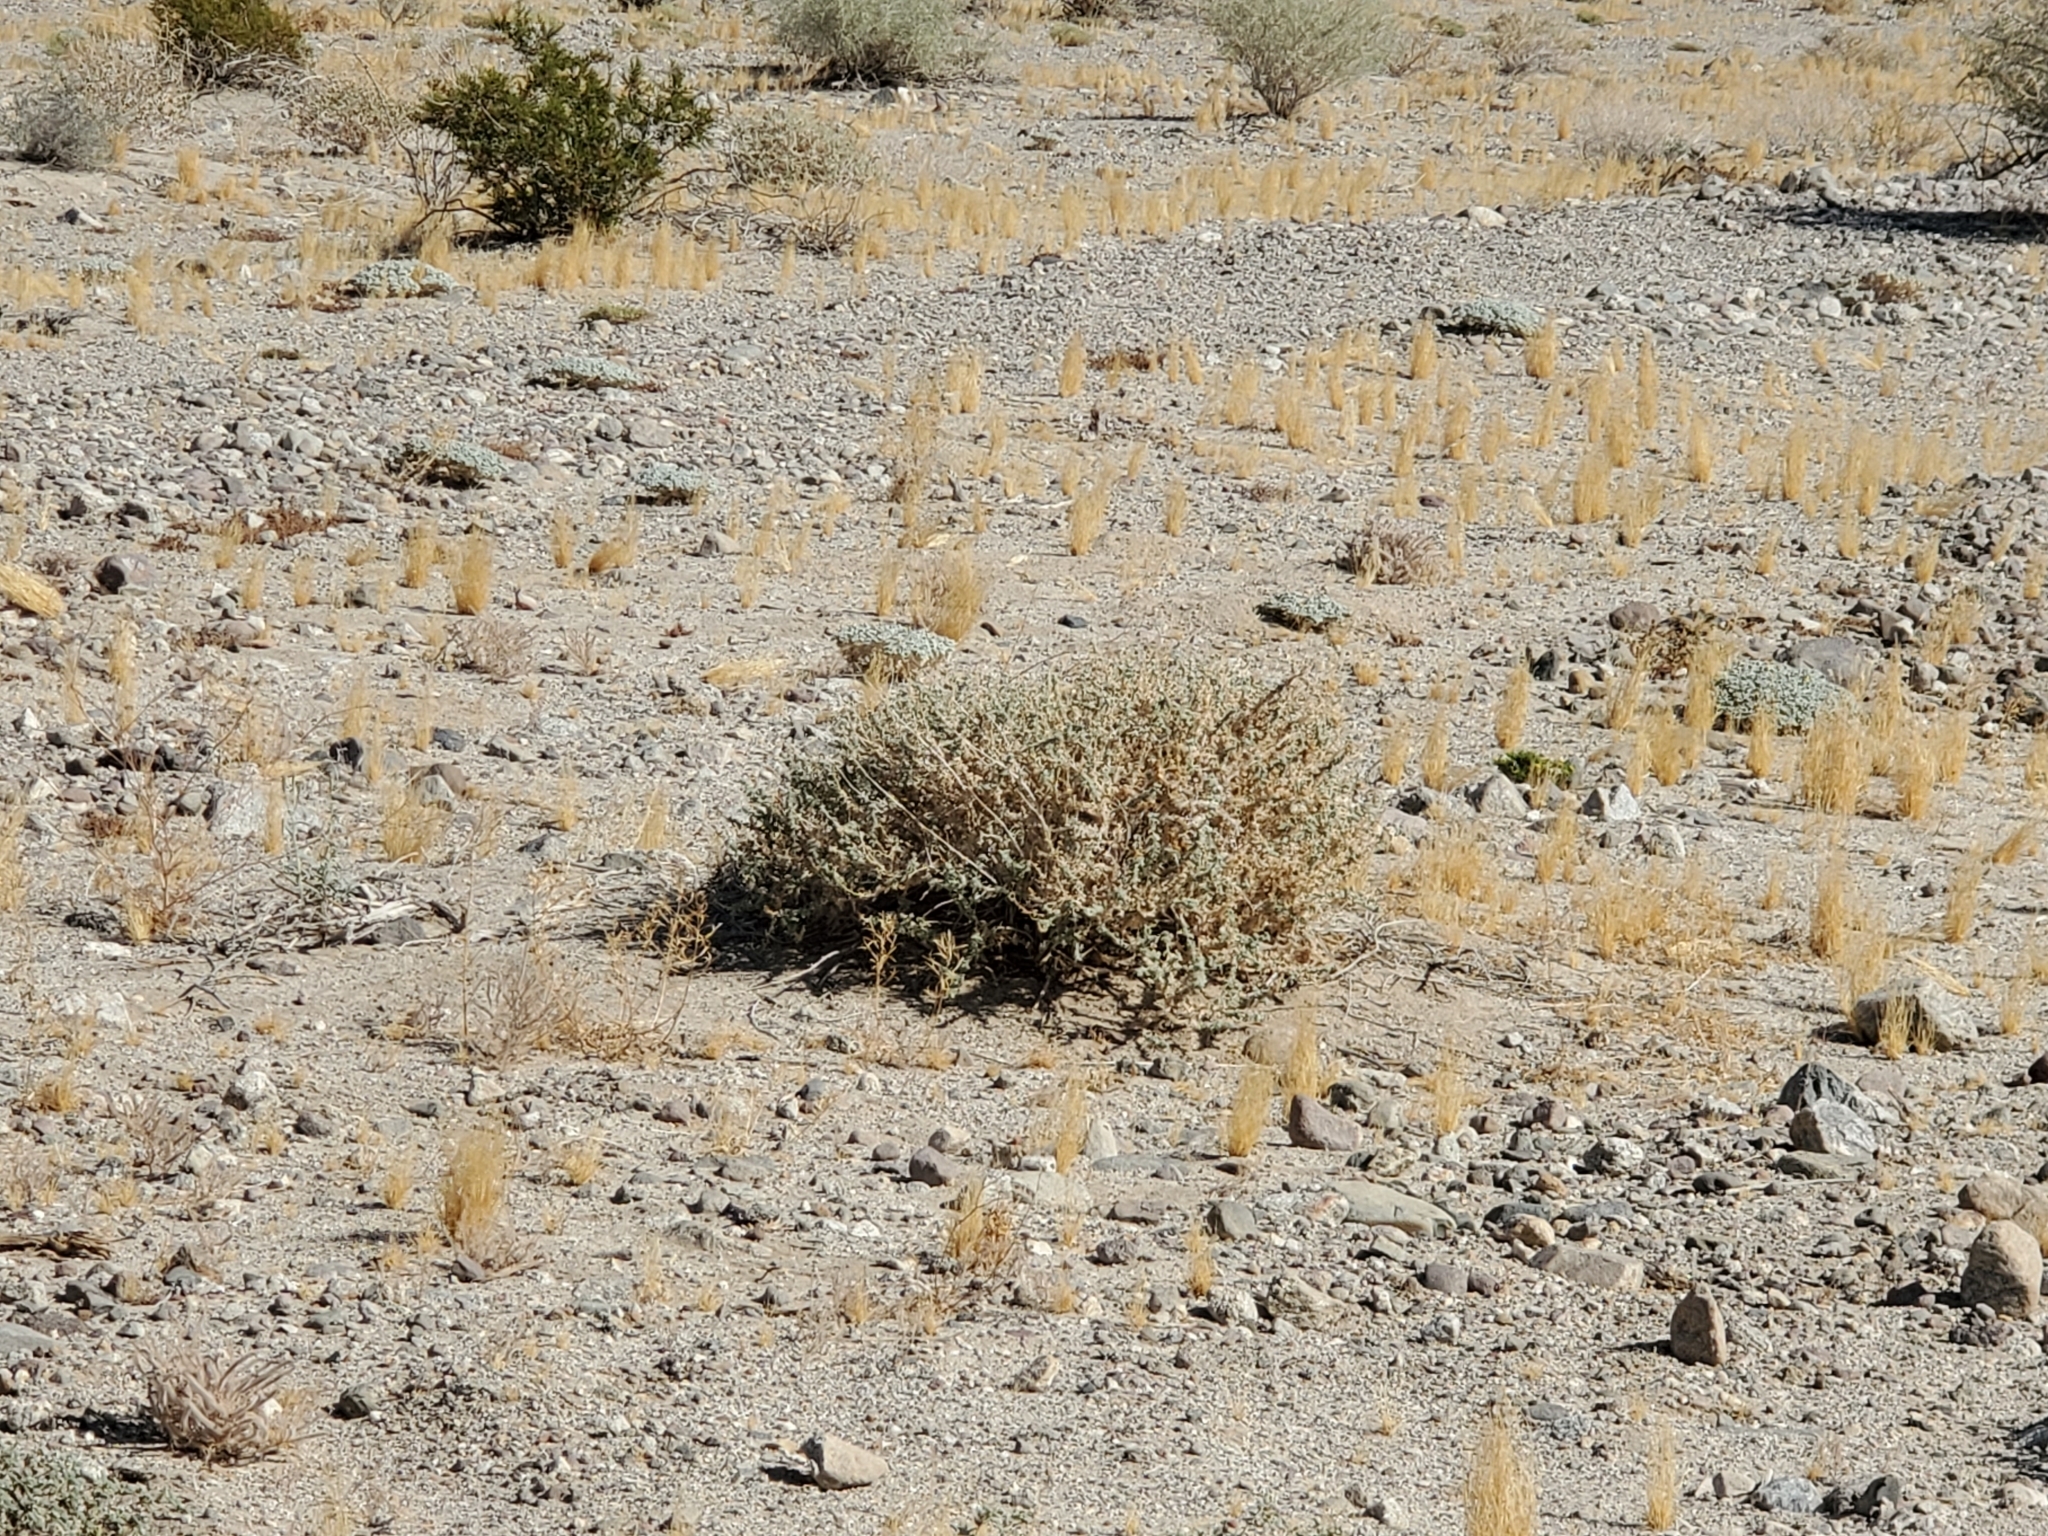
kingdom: Plantae
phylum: Tracheophyta
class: Magnoliopsida
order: Asterales
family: Asteraceae
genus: Ambrosia
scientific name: Ambrosia dumosa
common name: Bur-sage
